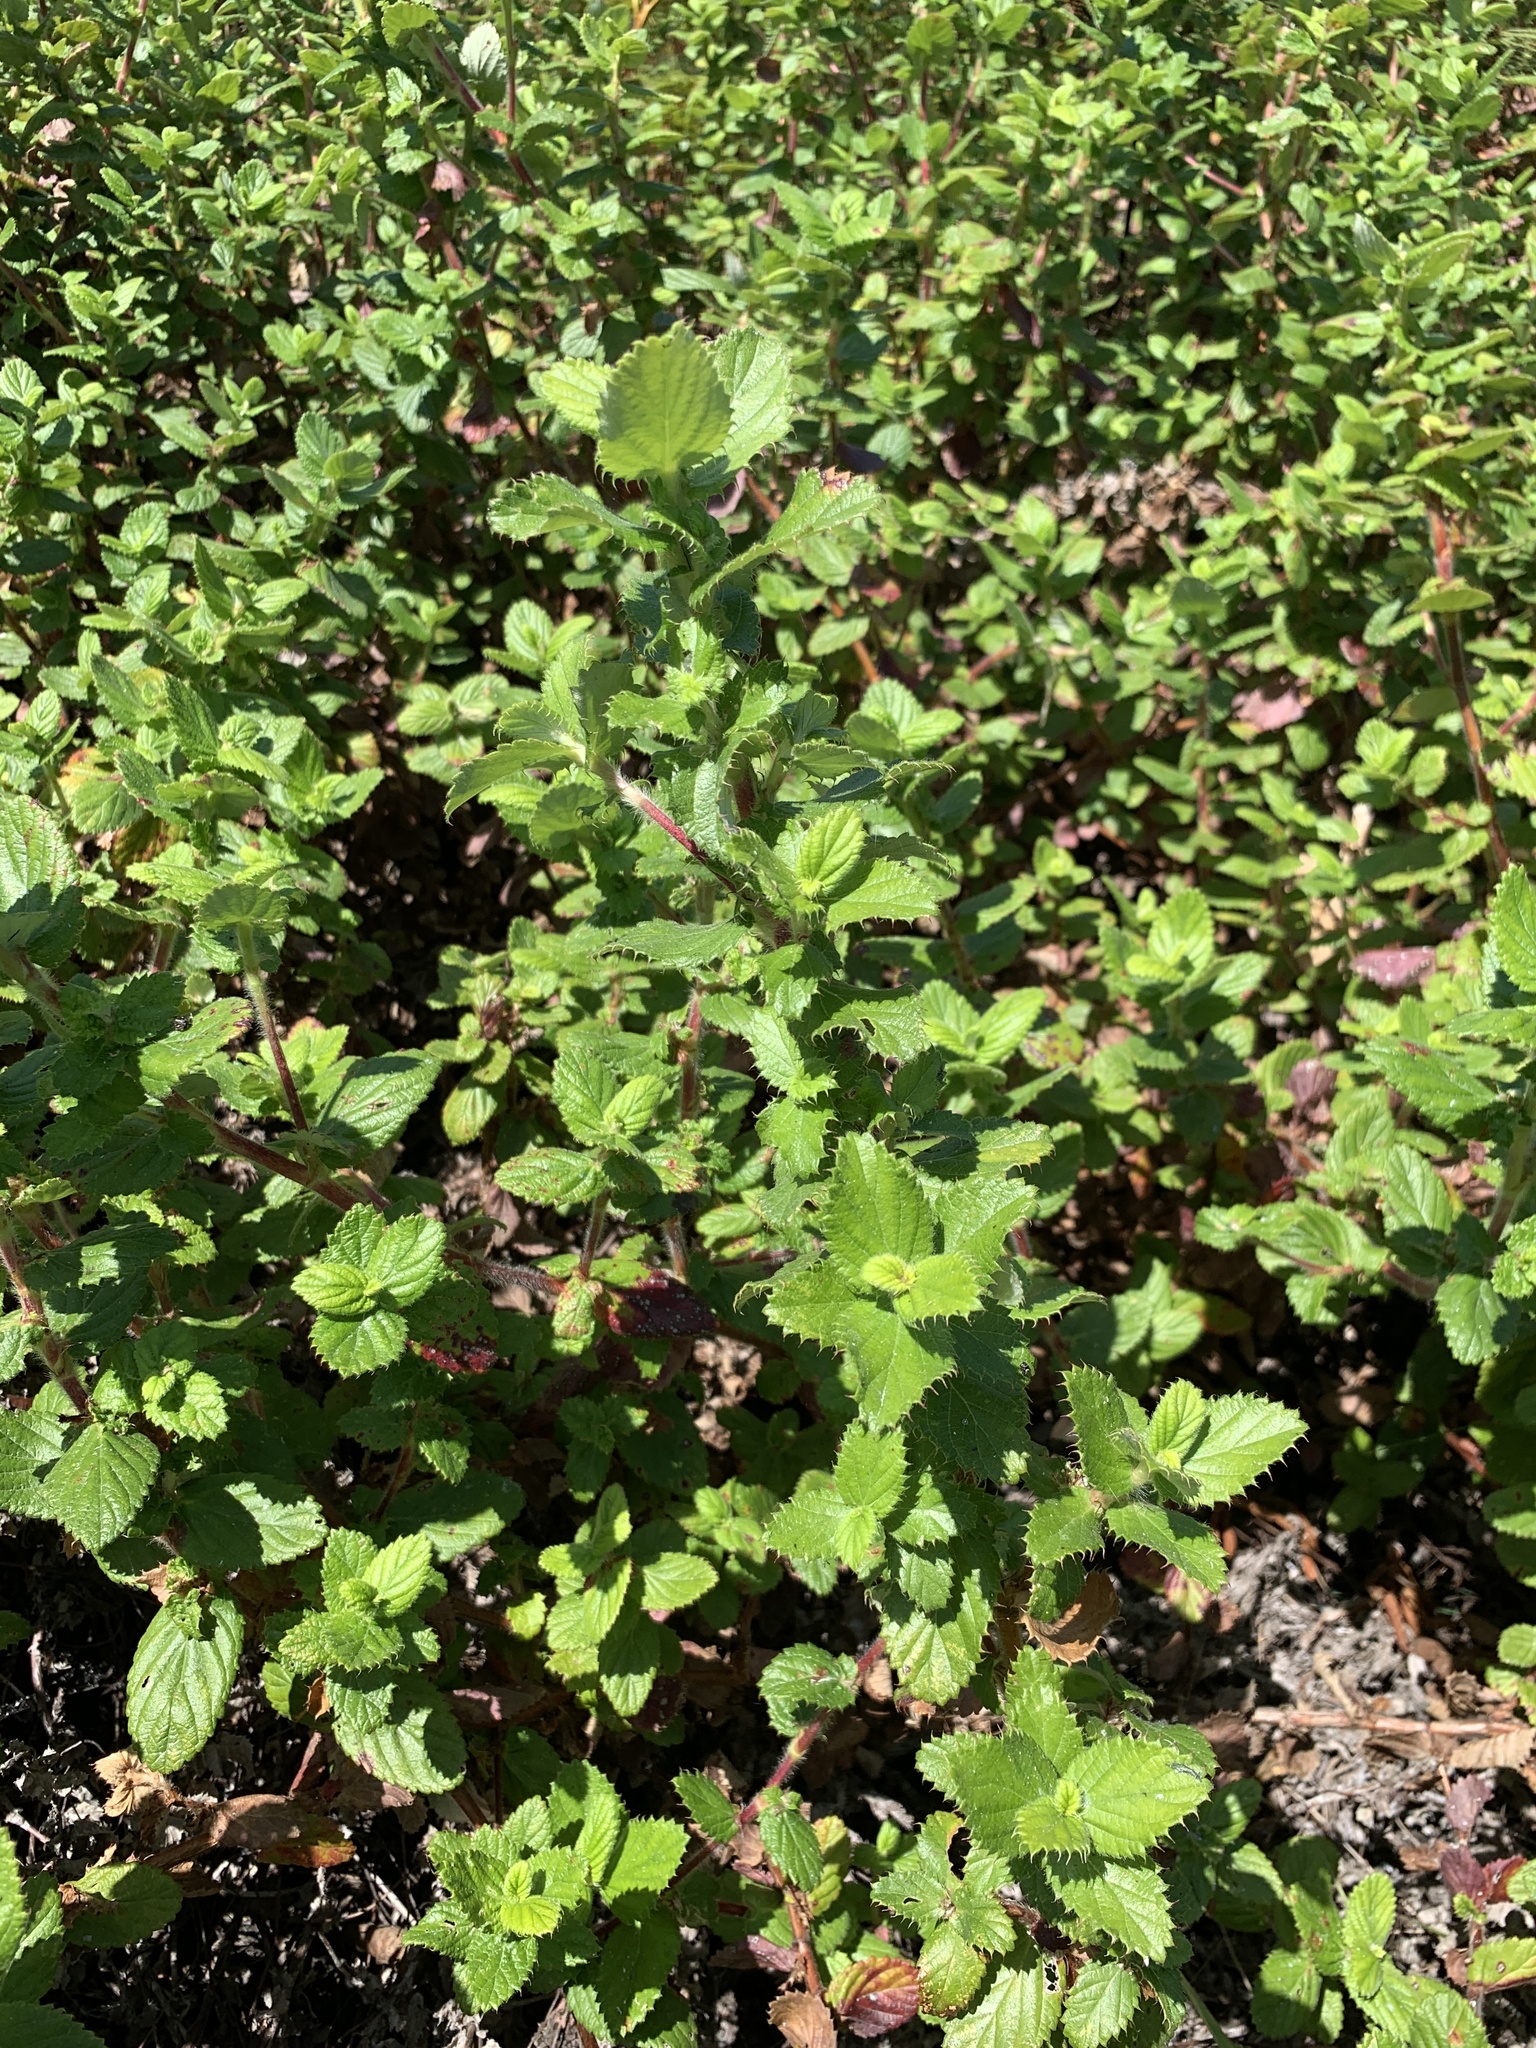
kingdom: Plantae
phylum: Tracheophyta
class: Magnoliopsida
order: Rosales
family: Rosaceae
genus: Cliffortia
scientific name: Cliffortia hirsuta
